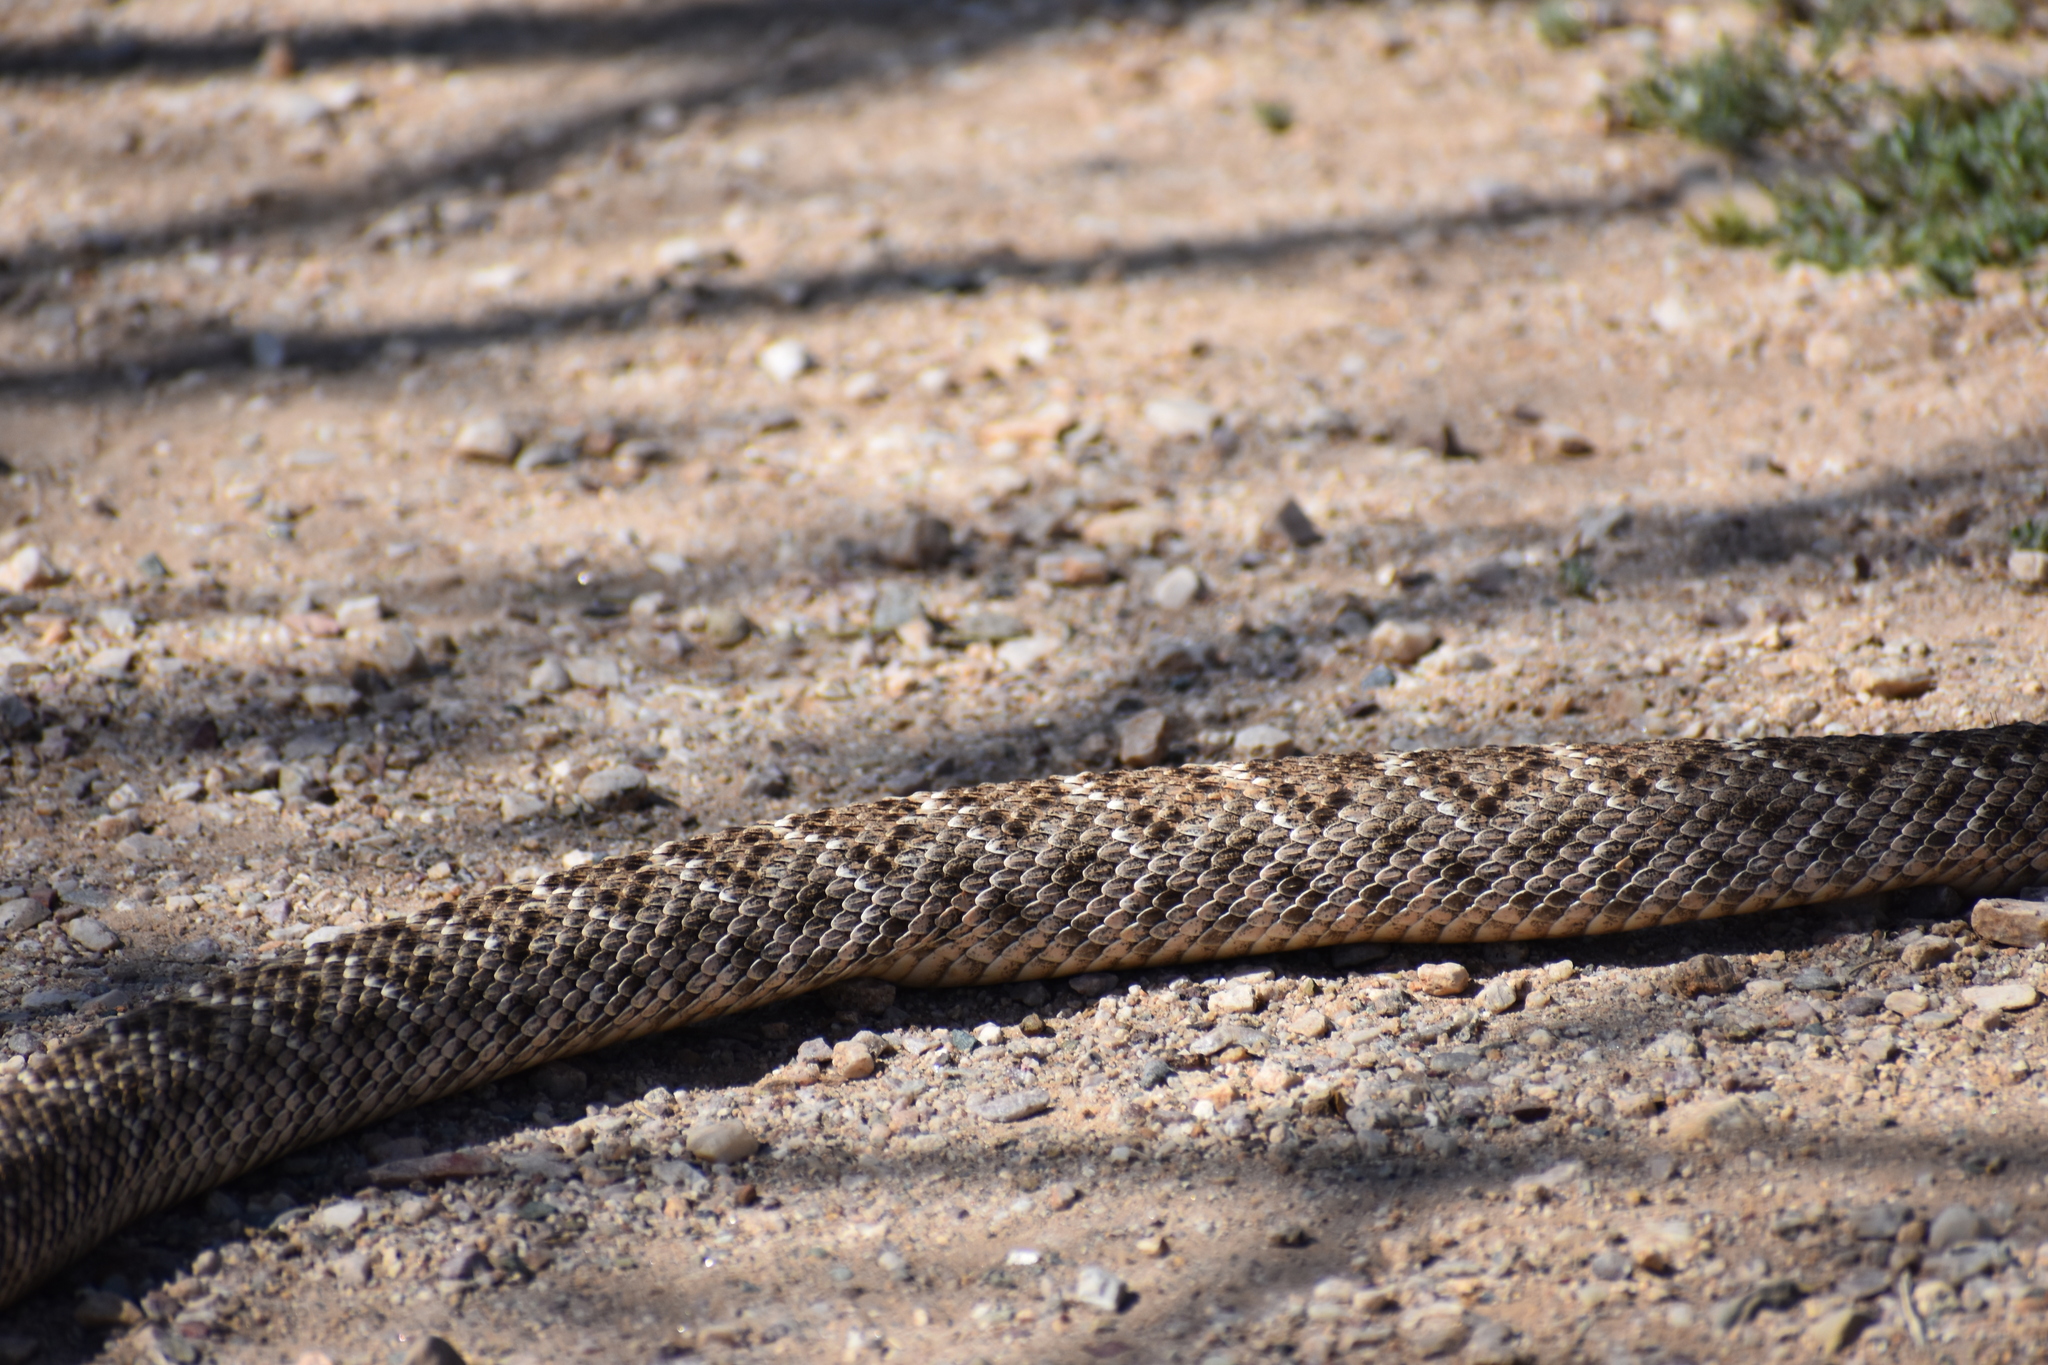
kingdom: Animalia
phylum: Chordata
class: Squamata
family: Viperidae
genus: Crotalus
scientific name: Crotalus atrox
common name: Western diamond-backed rattlesnake
